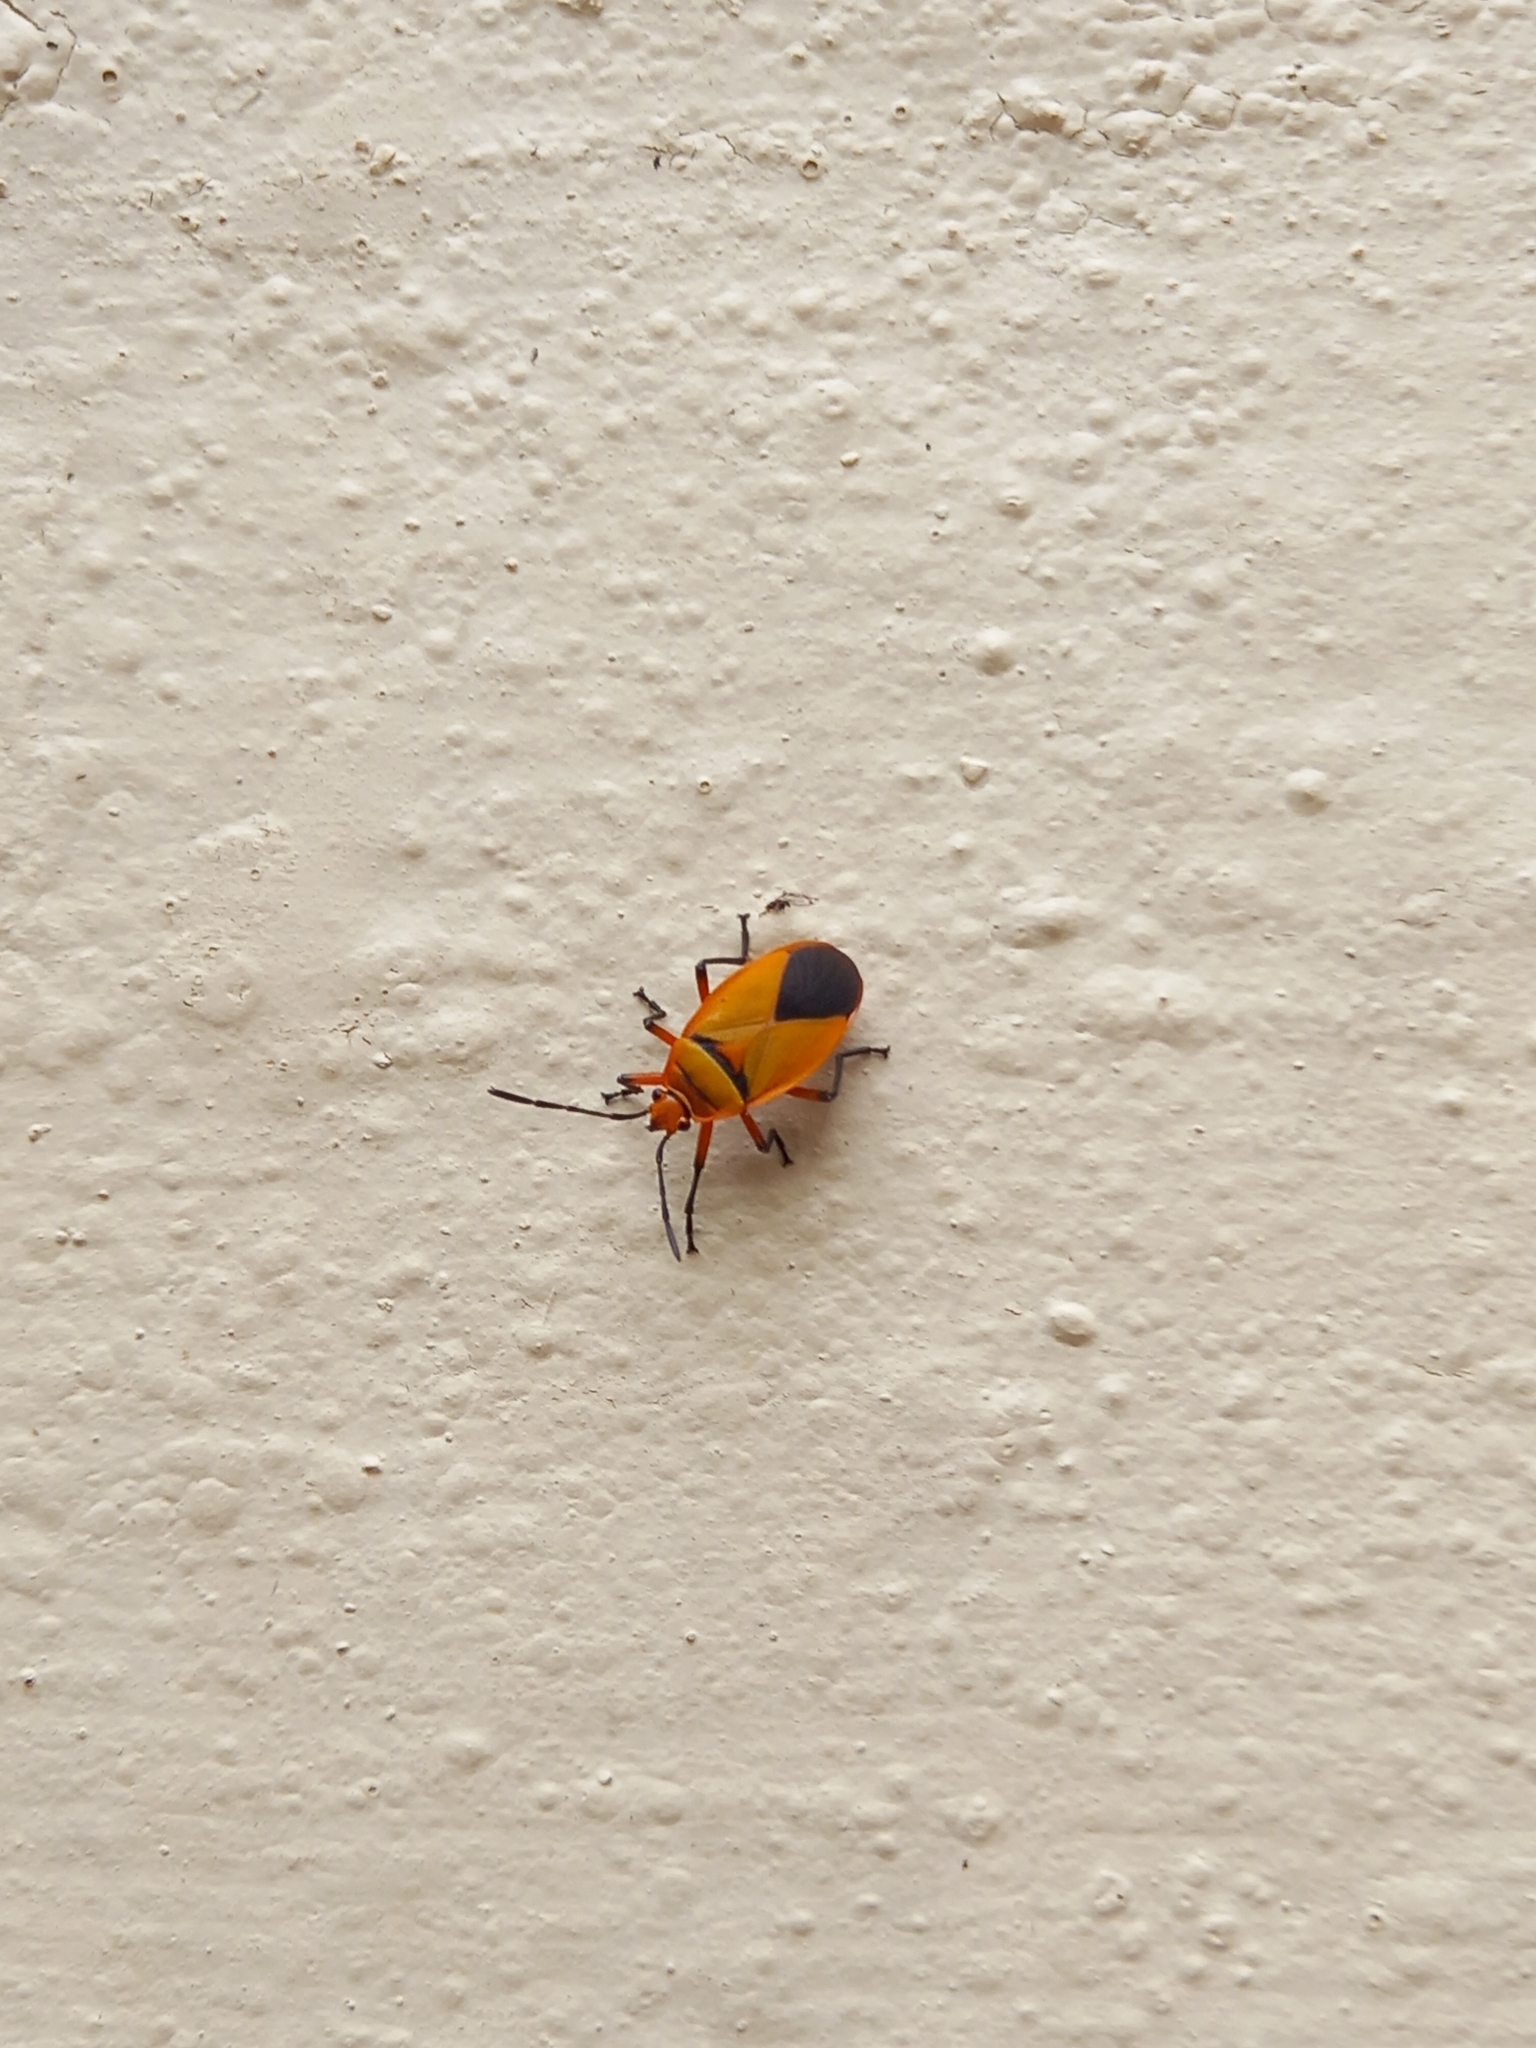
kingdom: Animalia
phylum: Arthropoda
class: Insecta
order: Hemiptera
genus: Cenaeus
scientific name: Cenaeus
